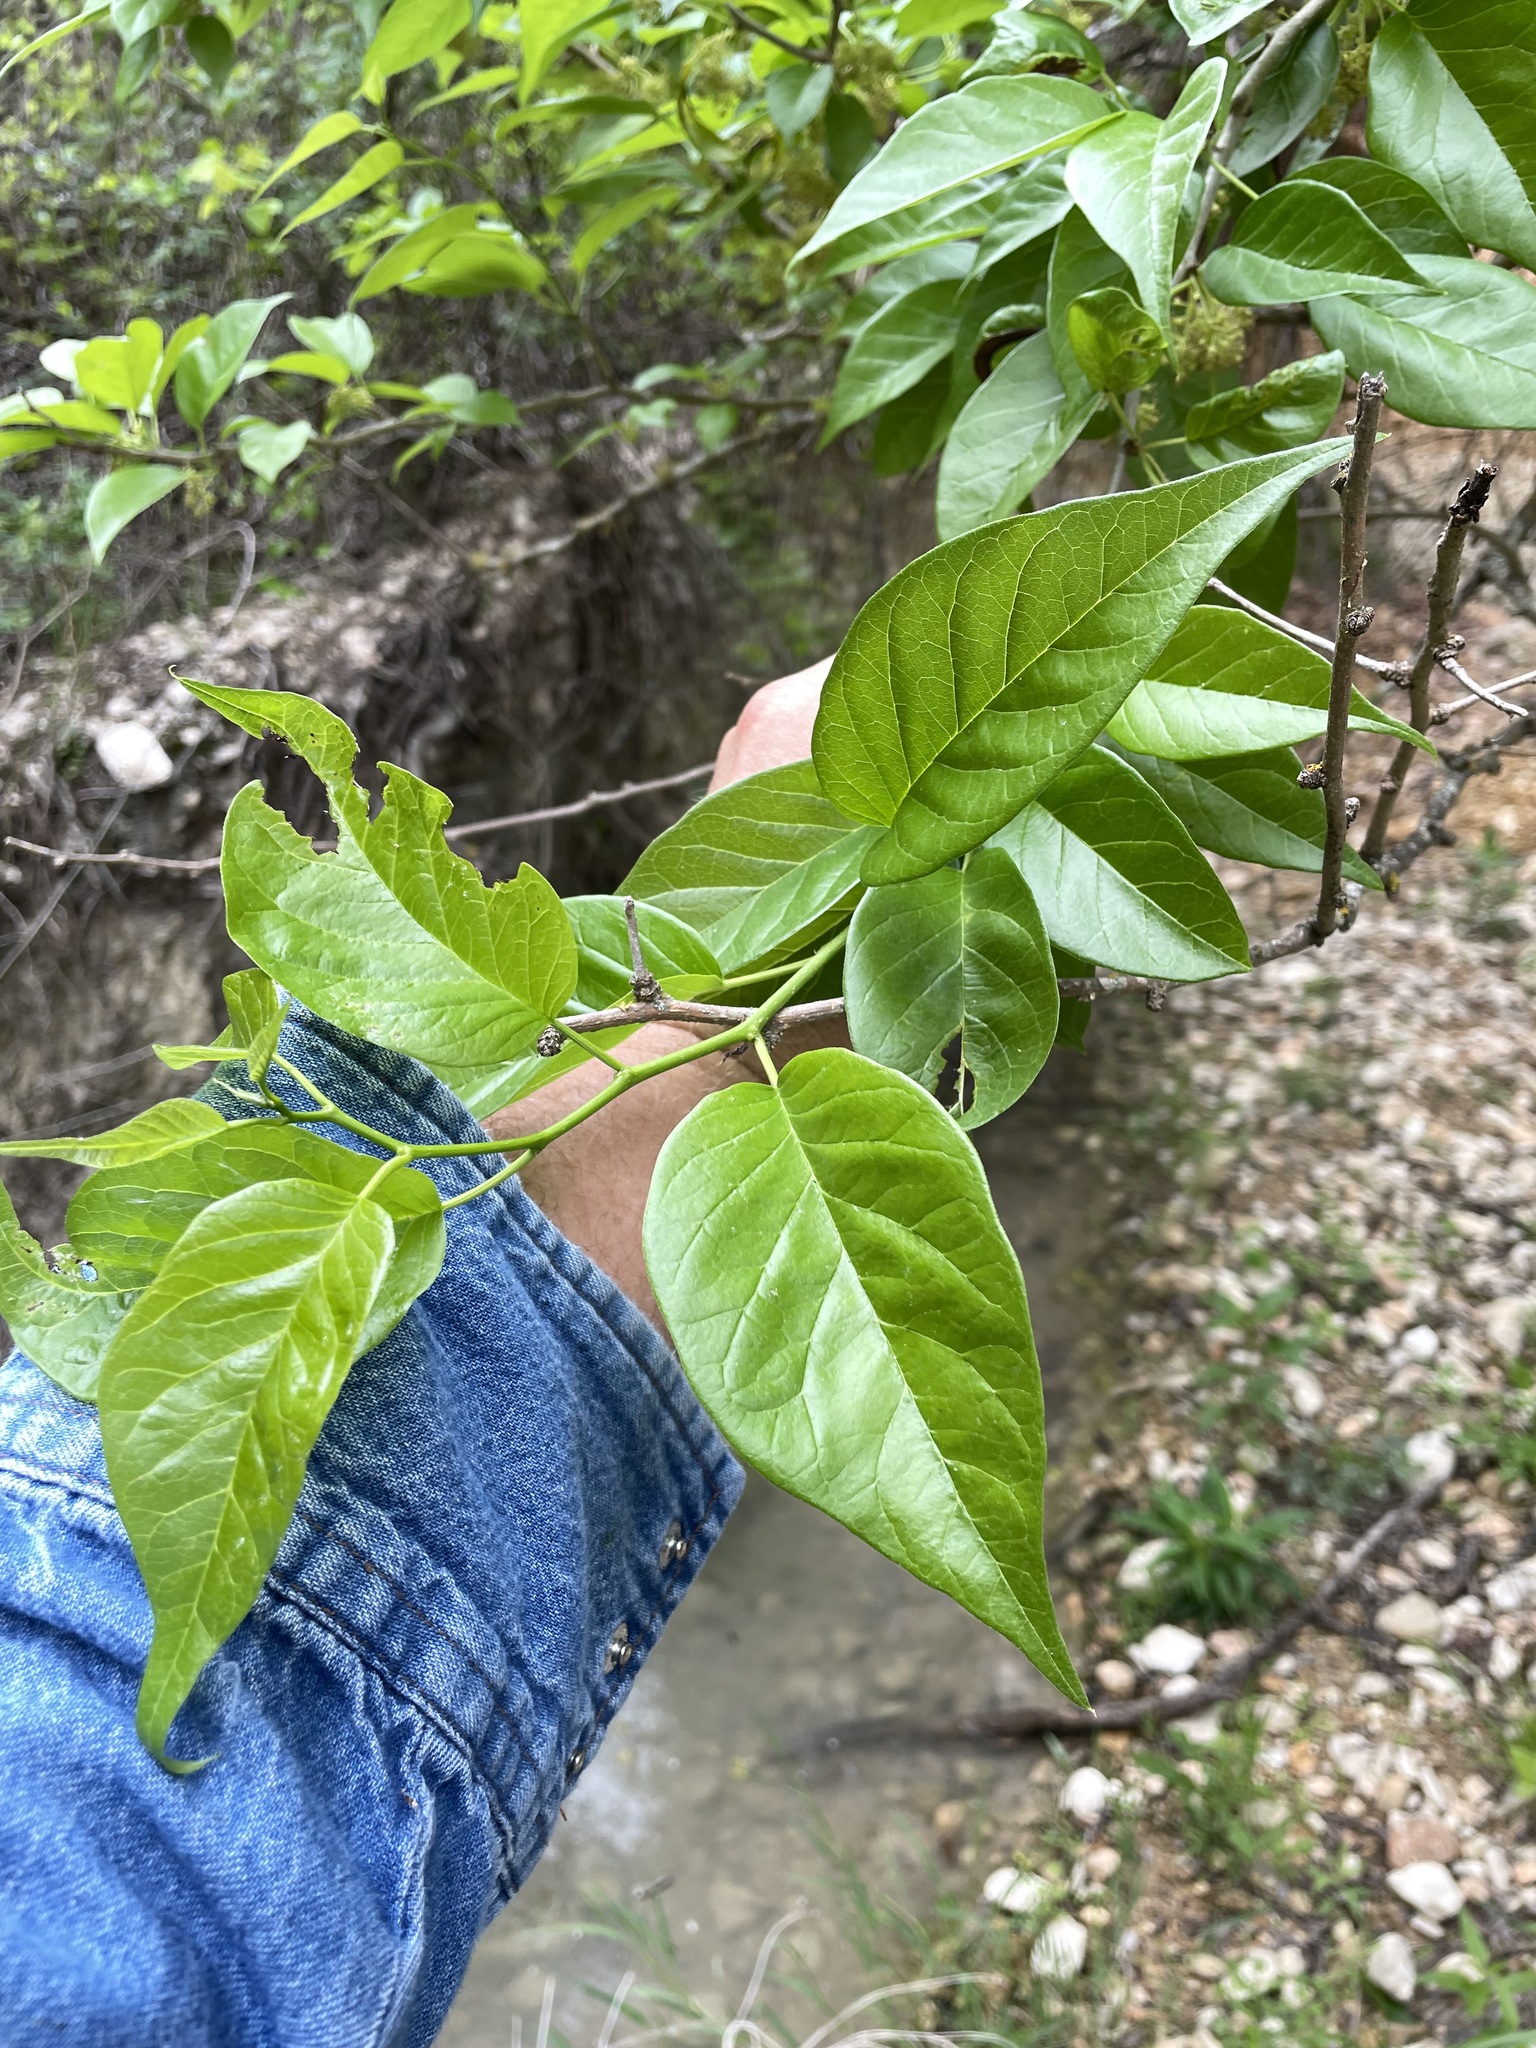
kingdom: Plantae
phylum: Tracheophyta
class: Magnoliopsida
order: Rosales
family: Moraceae
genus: Maclura
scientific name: Maclura pomifera
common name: Osage-orange
